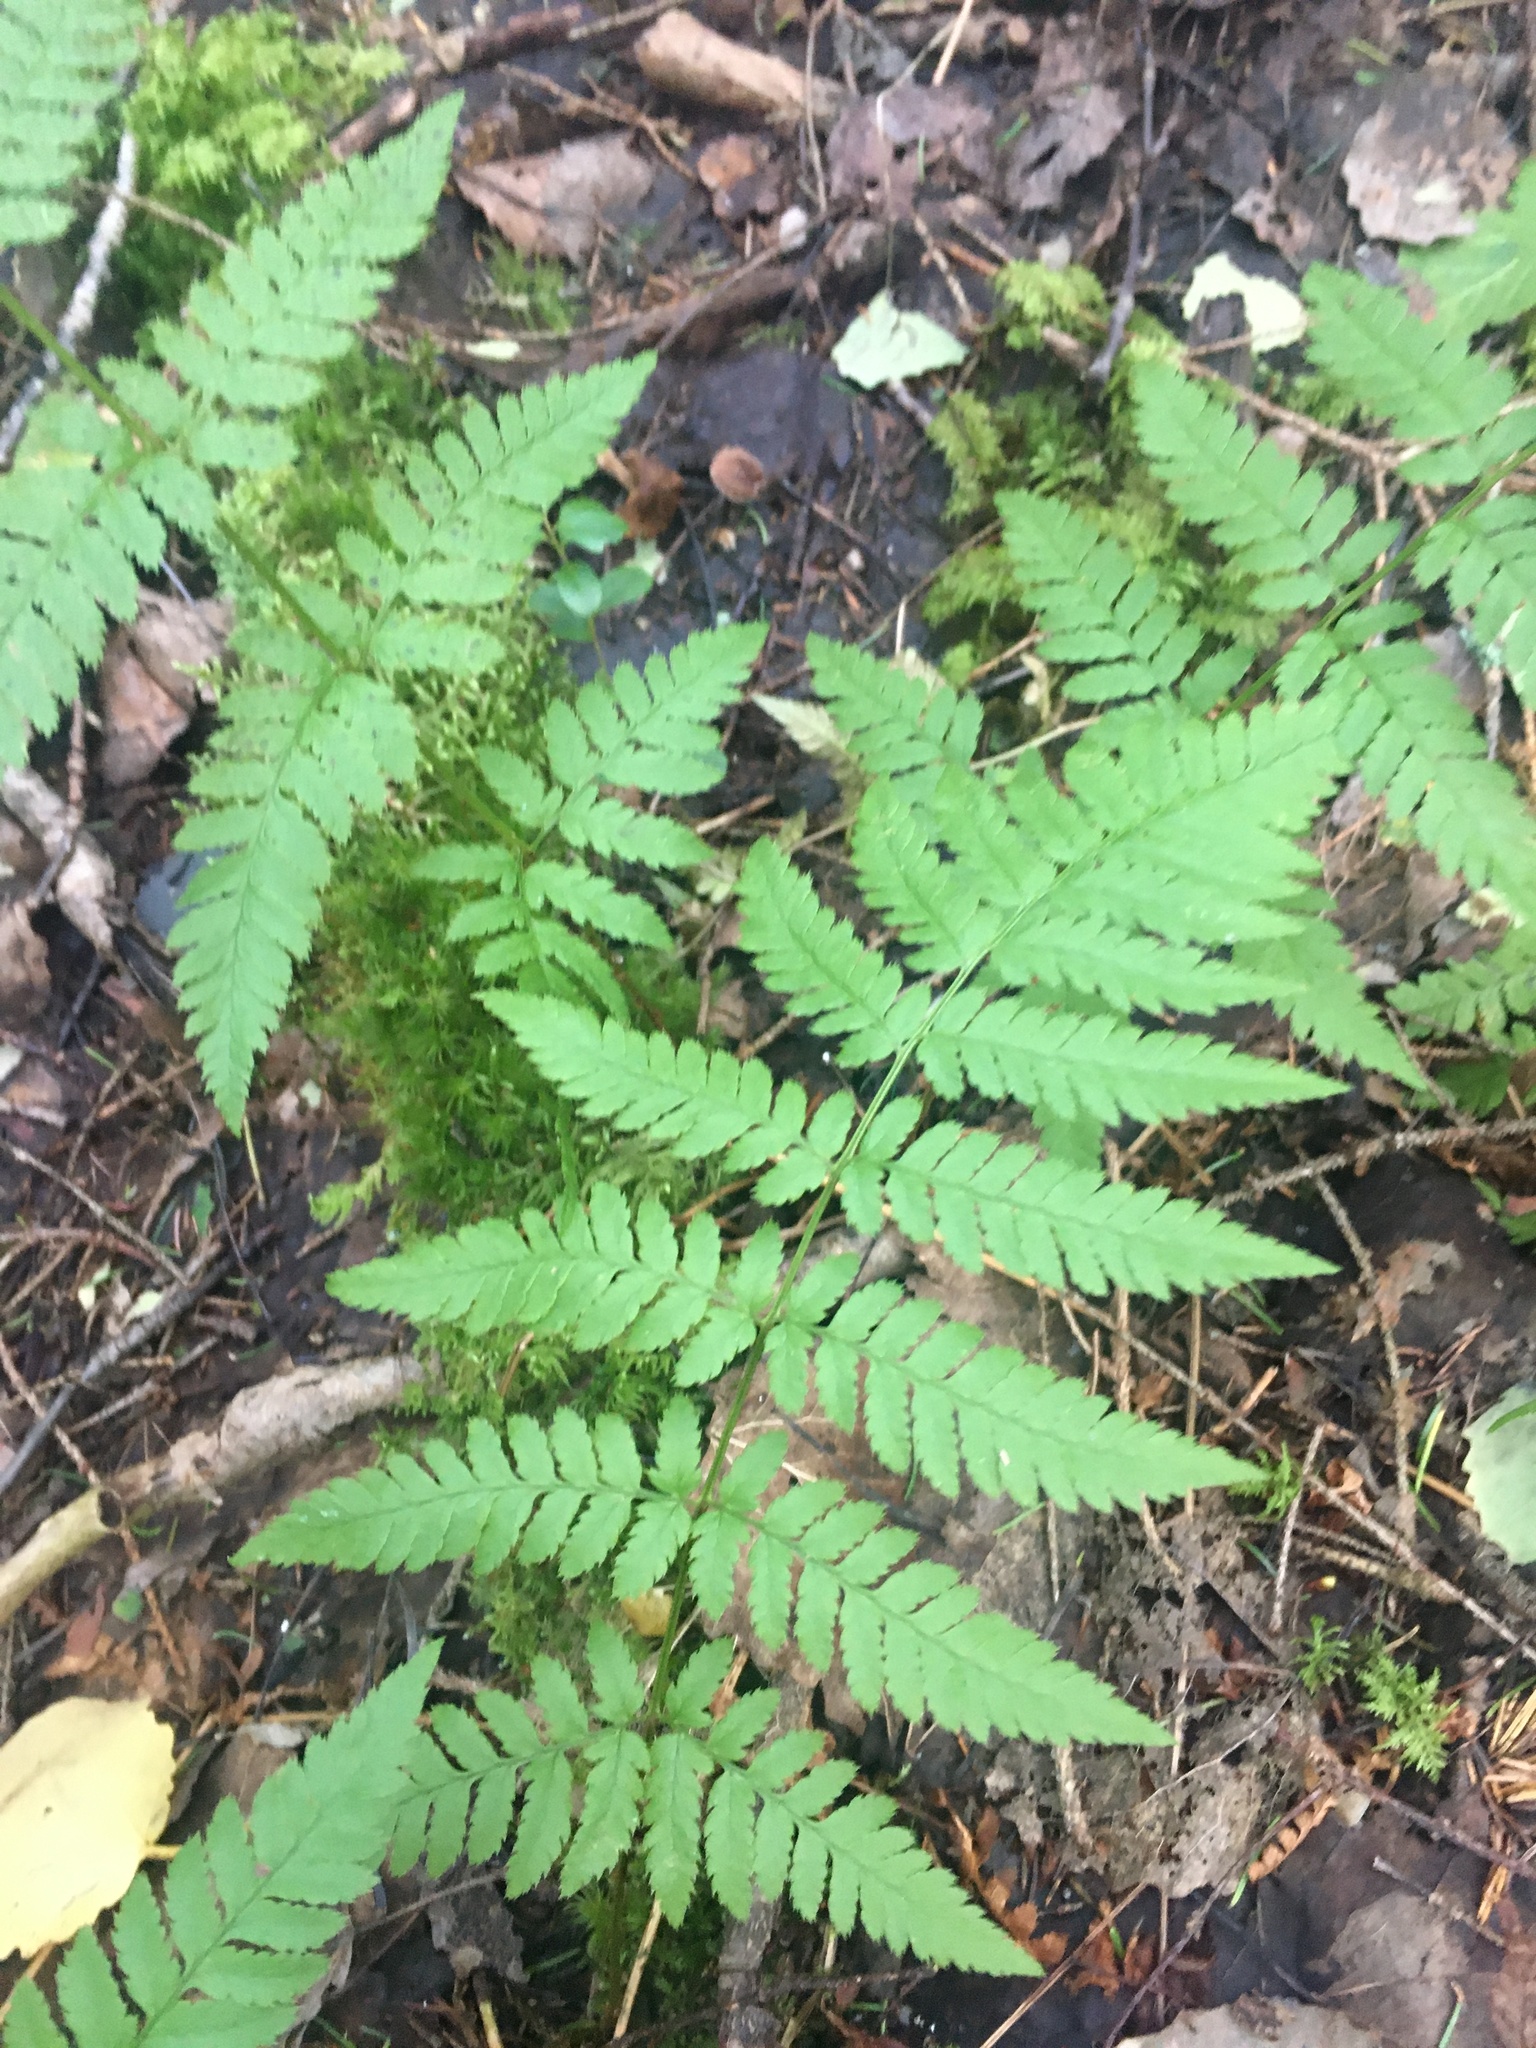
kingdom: Plantae
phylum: Tracheophyta
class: Polypodiopsida
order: Polypodiales
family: Dryopteridaceae
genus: Dryopteris
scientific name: Dryopteris carthusiana
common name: Narrow buckler-fern
